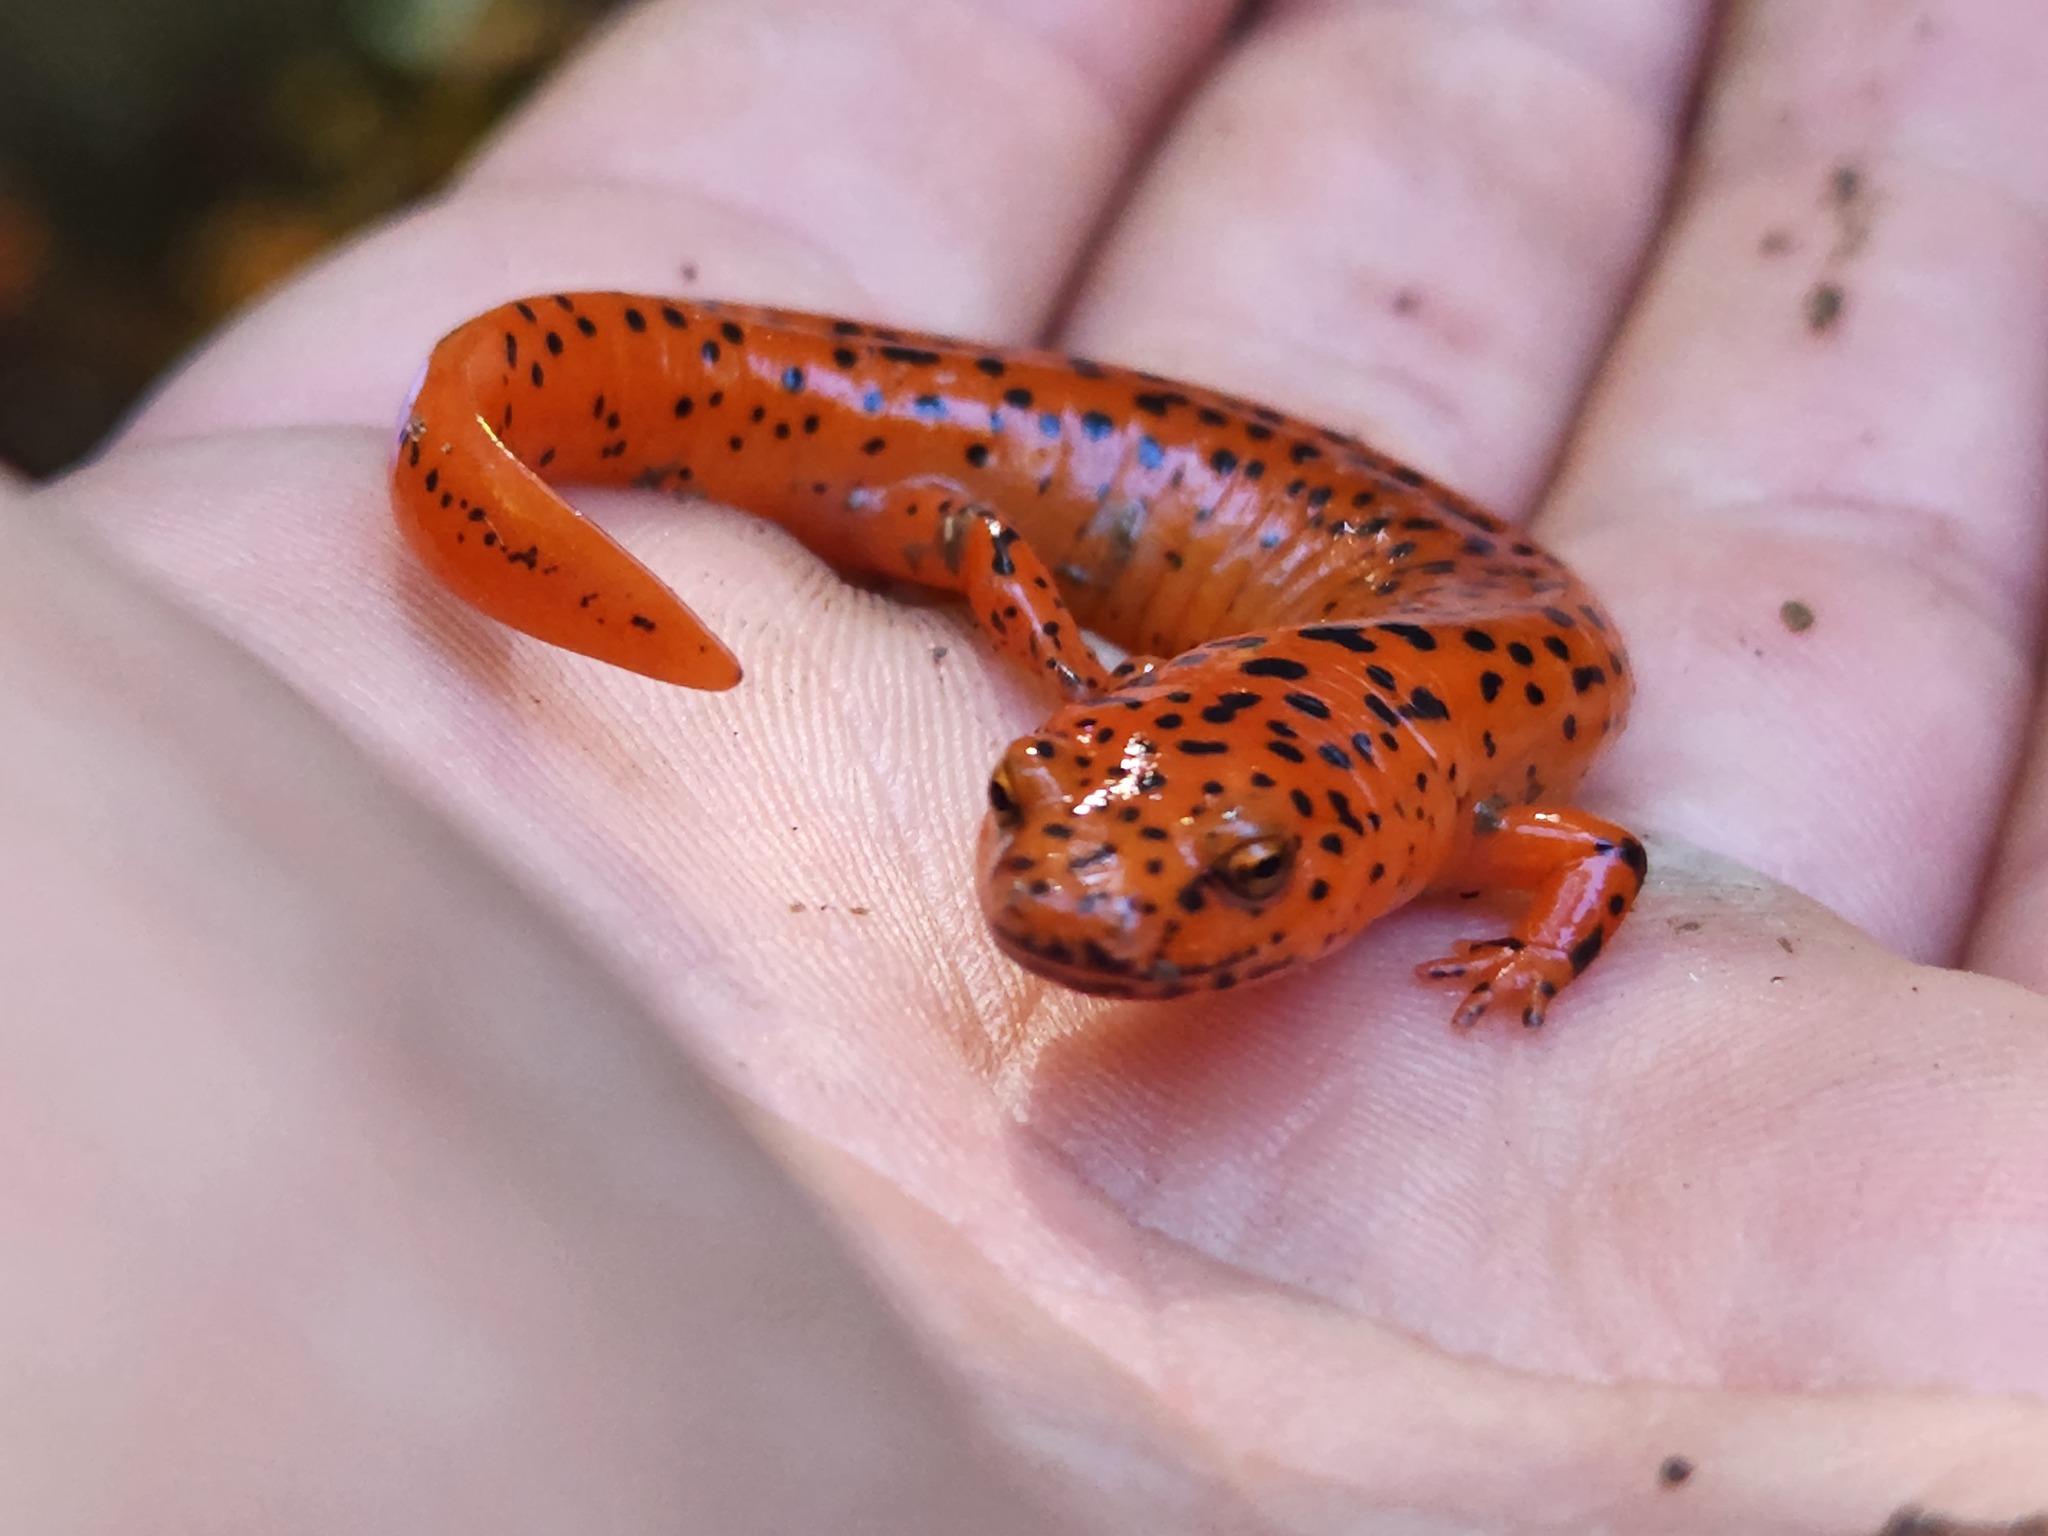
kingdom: Animalia
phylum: Chordata
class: Amphibia
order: Caudata
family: Plethodontidae
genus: Pseudotriton
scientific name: Pseudotriton ruber
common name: Red salamander
